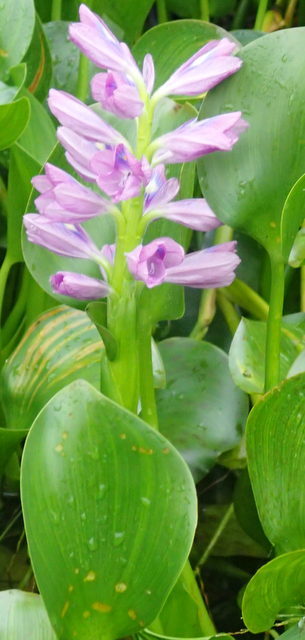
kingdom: Plantae
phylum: Tracheophyta
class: Liliopsida
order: Commelinales
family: Pontederiaceae
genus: Pontederia
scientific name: Pontederia crassipes
